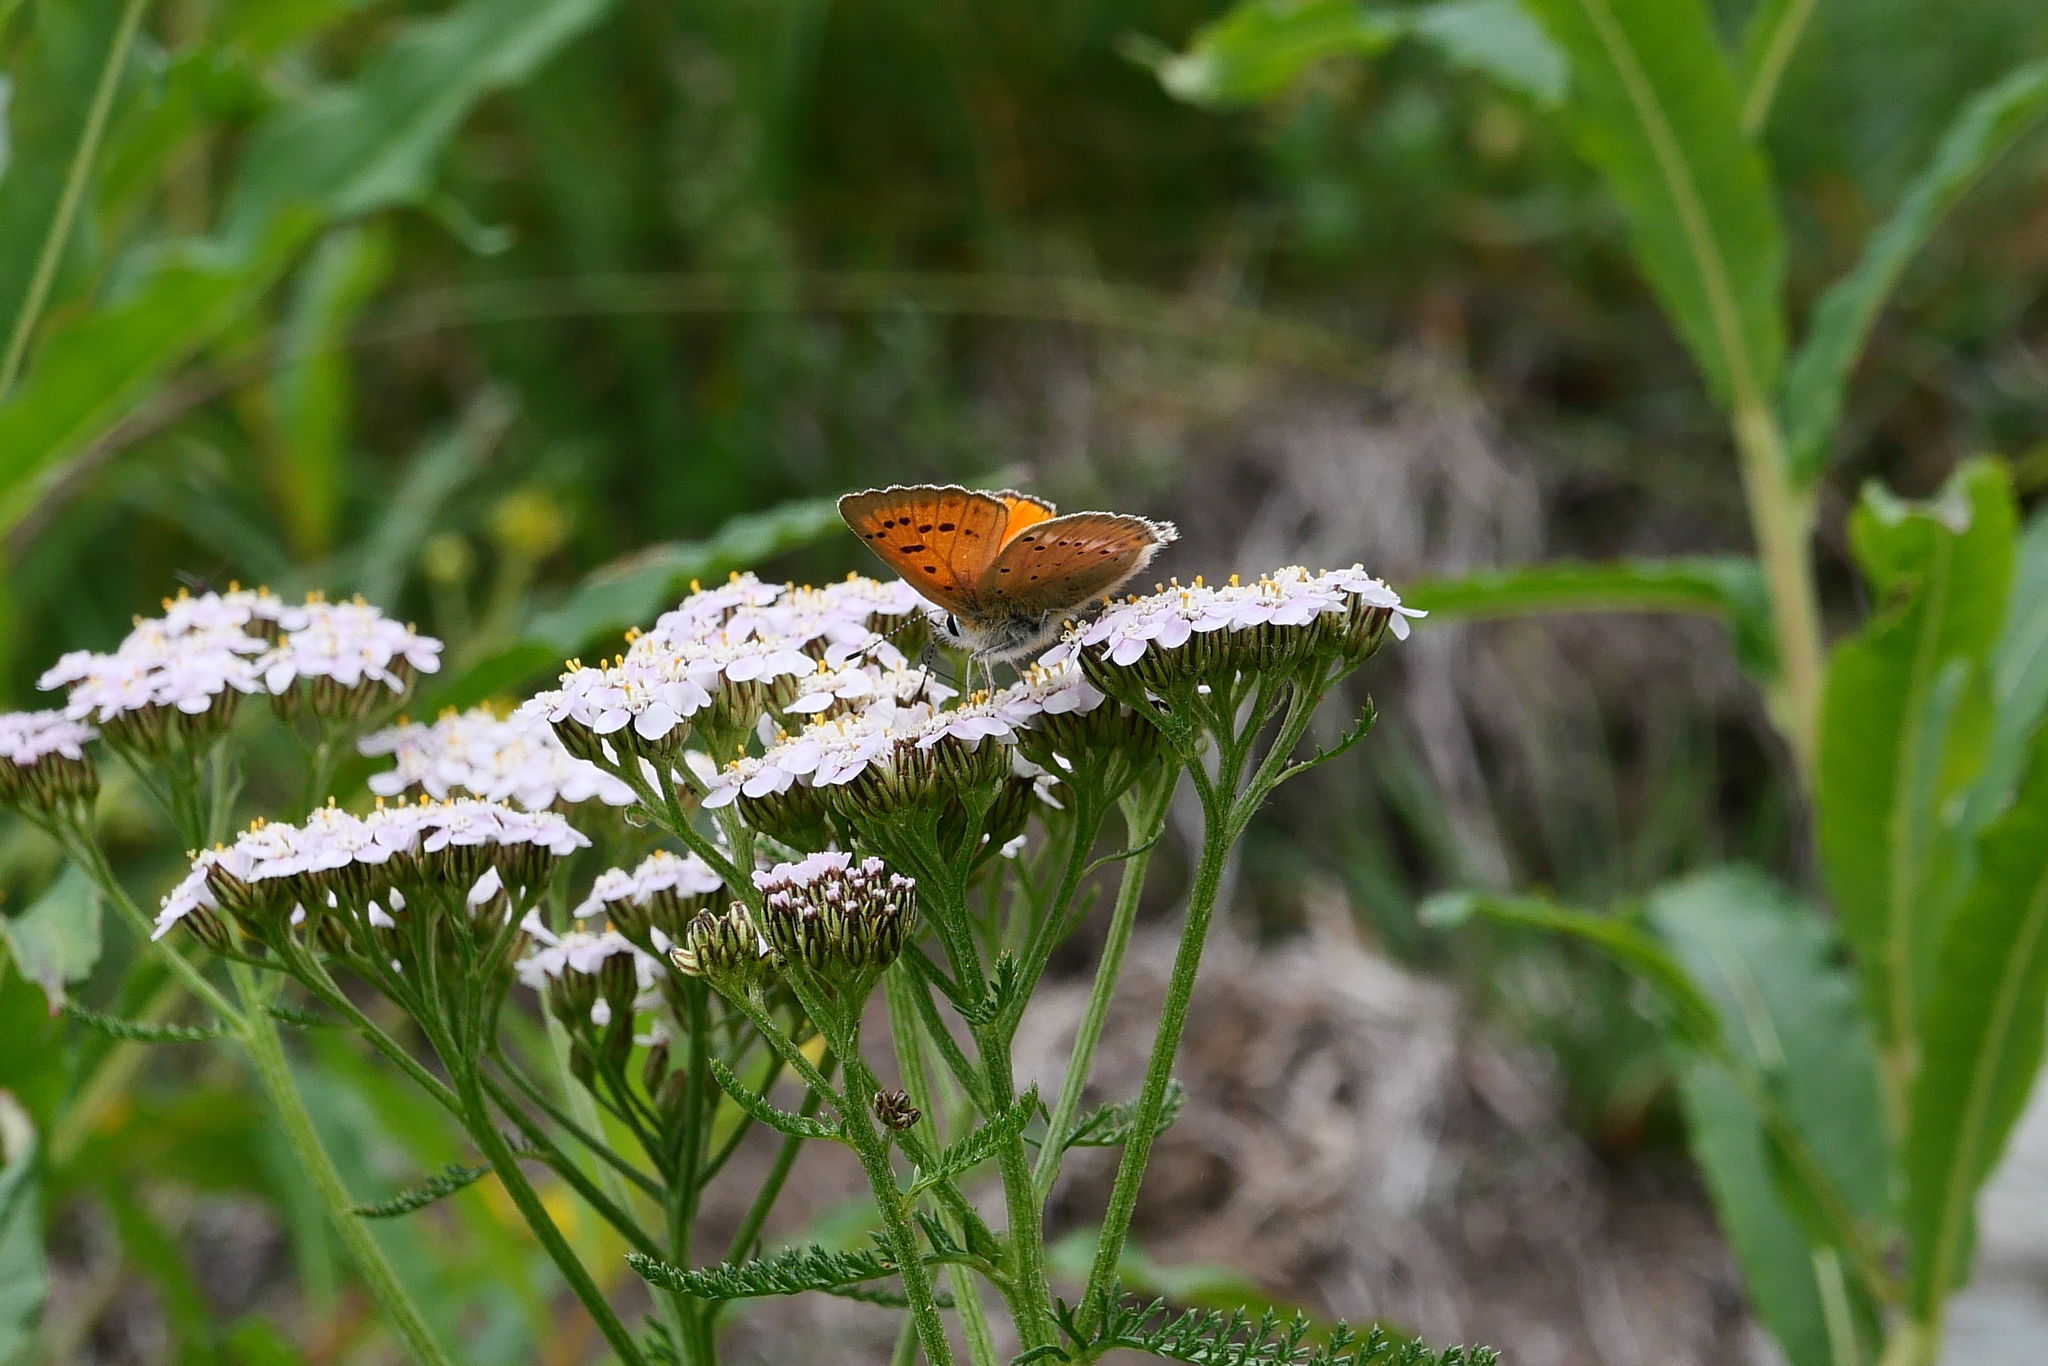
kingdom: Animalia
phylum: Arthropoda
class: Insecta
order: Lepidoptera
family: Lycaenidae
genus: Lycaena
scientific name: Lycaena virgaureae
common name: Scarce copper
